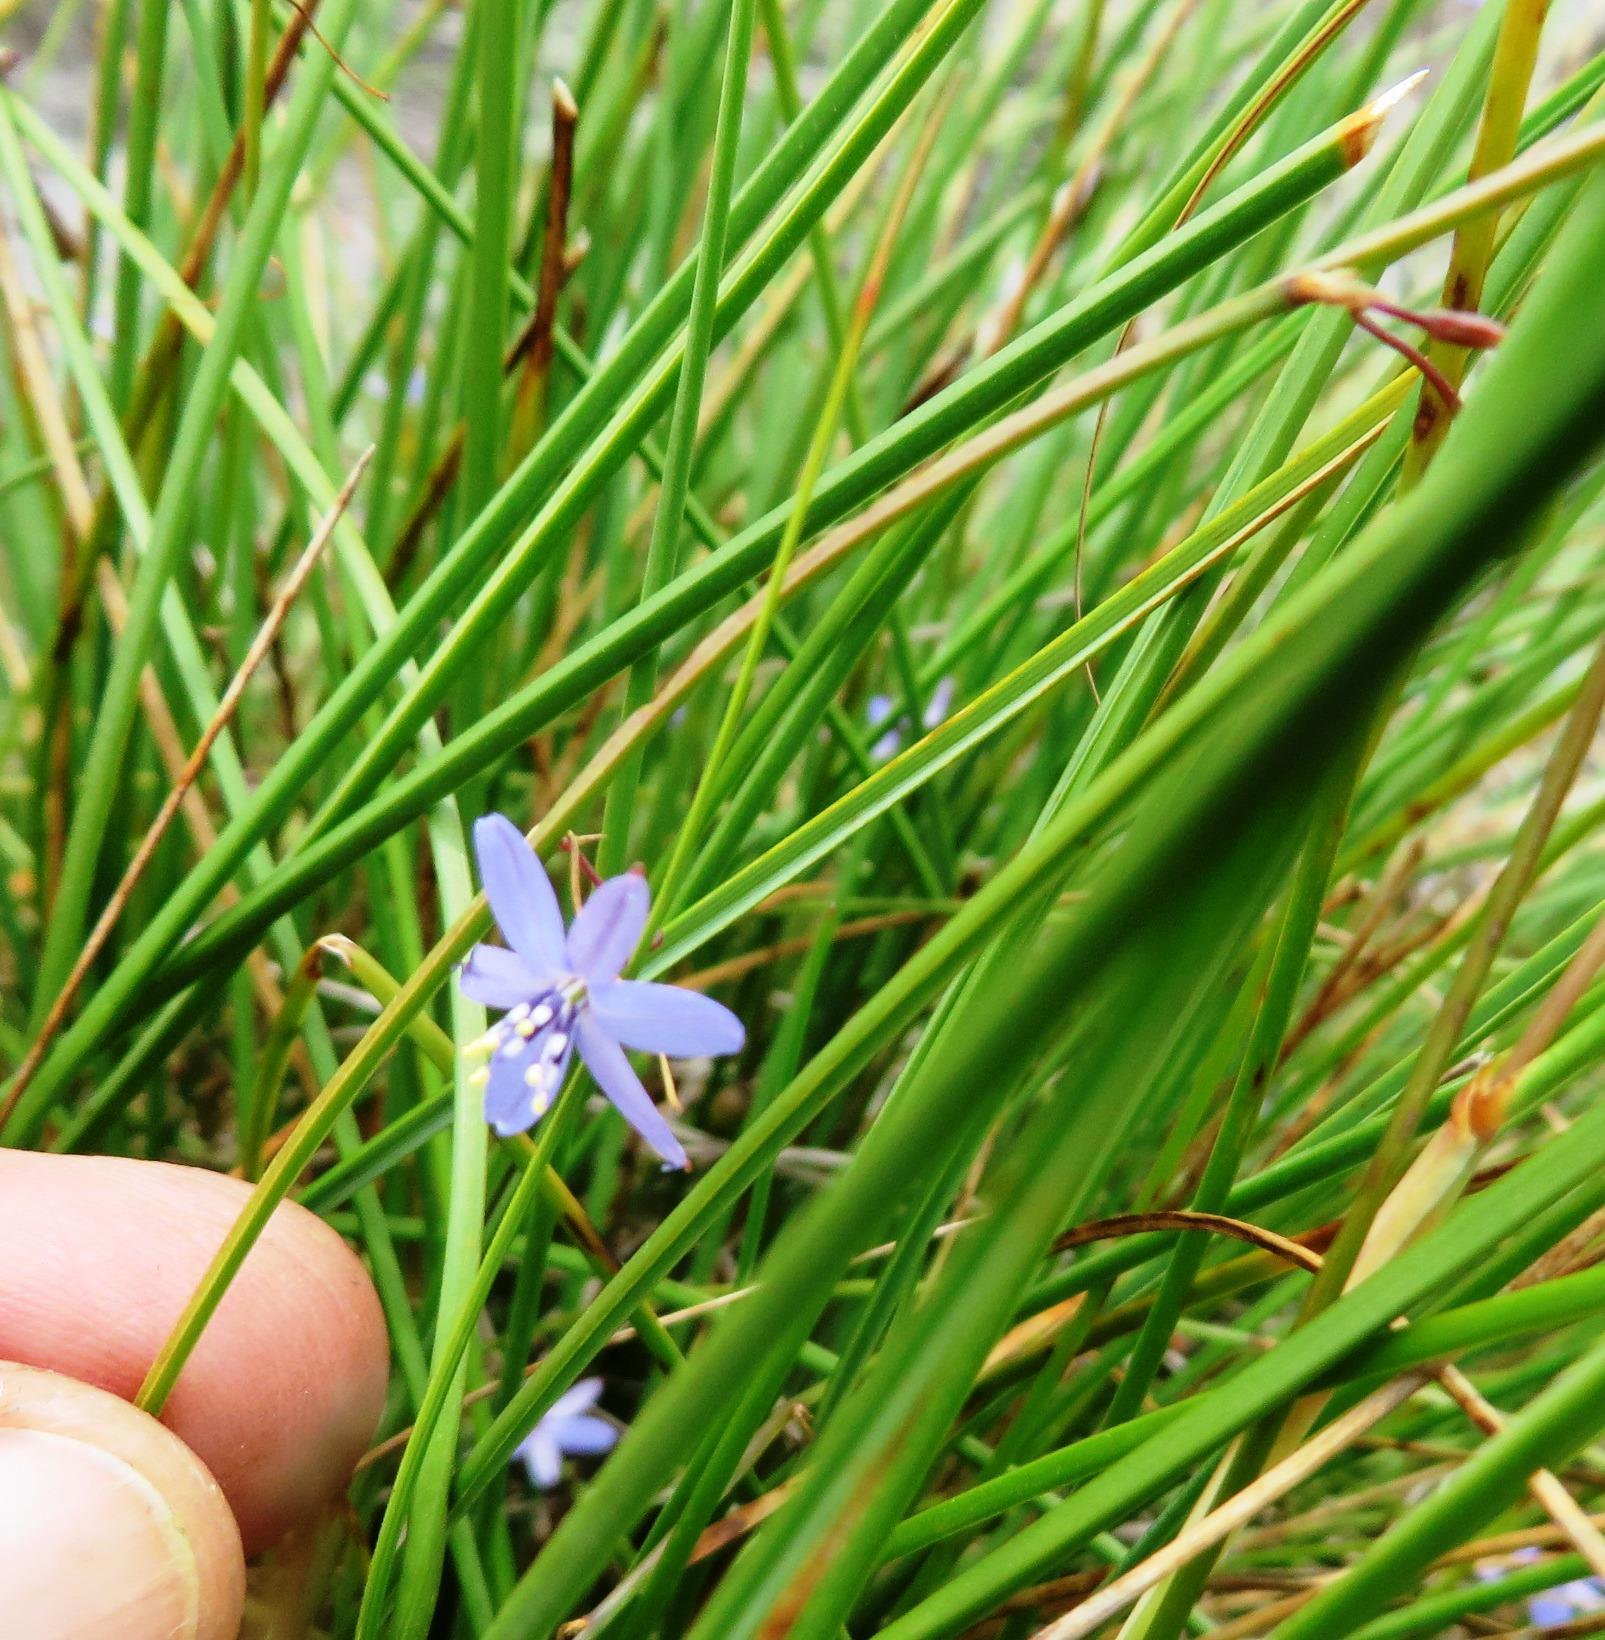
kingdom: Plantae
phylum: Tracheophyta
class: Liliopsida
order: Asparagales
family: Asphodelaceae
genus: Caesia
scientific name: Caesia contorta
